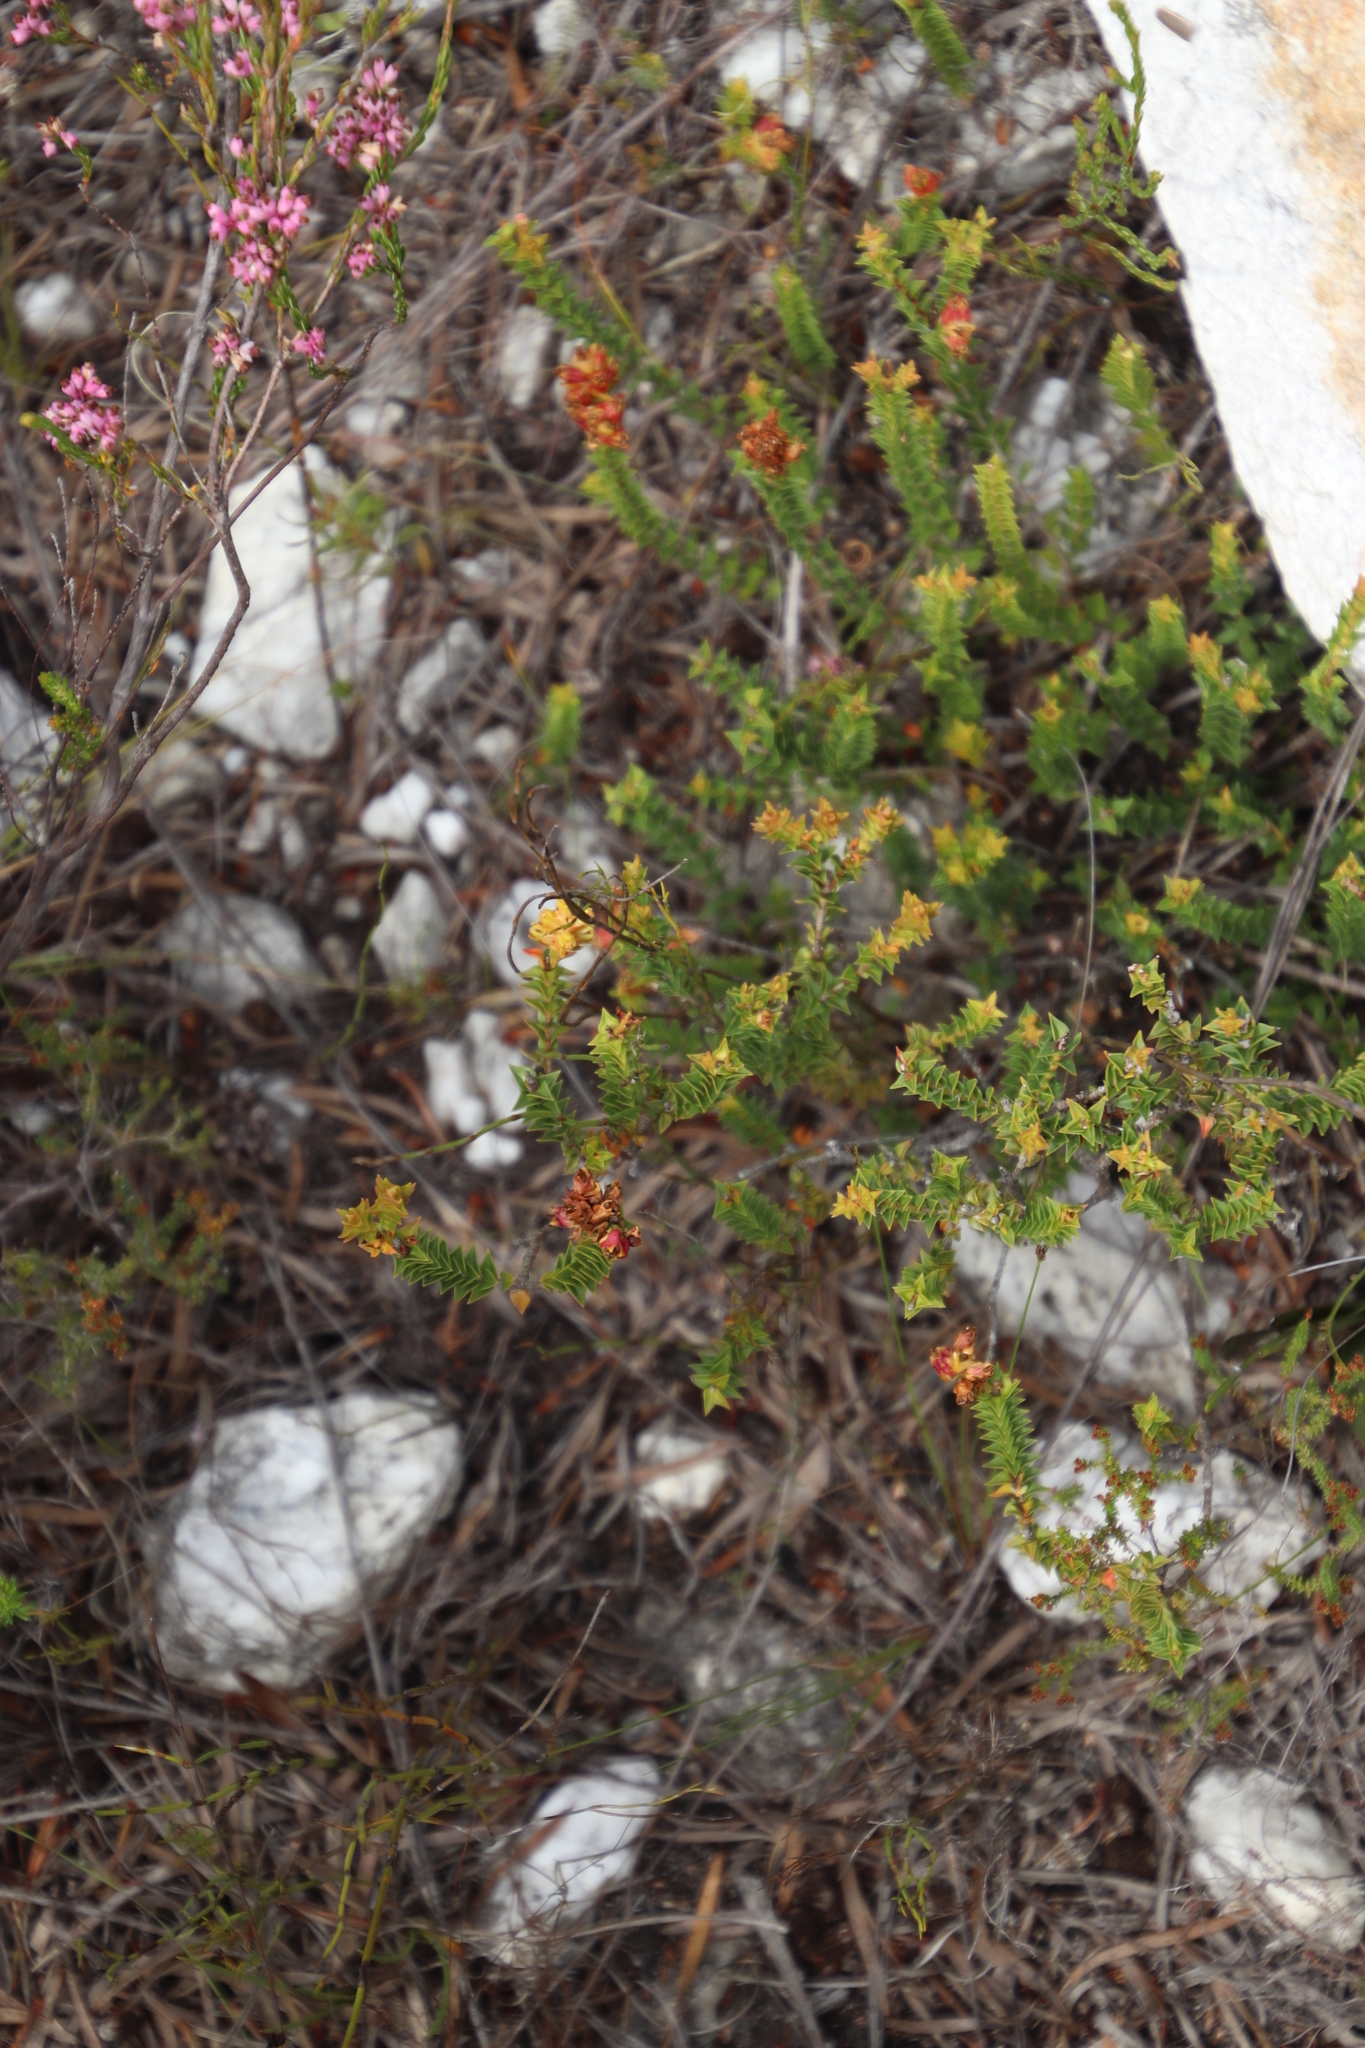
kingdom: Plantae
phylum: Tracheophyta
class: Magnoliopsida
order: Myrtales
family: Penaeaceae
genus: Penaea
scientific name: Penaea mucronata
